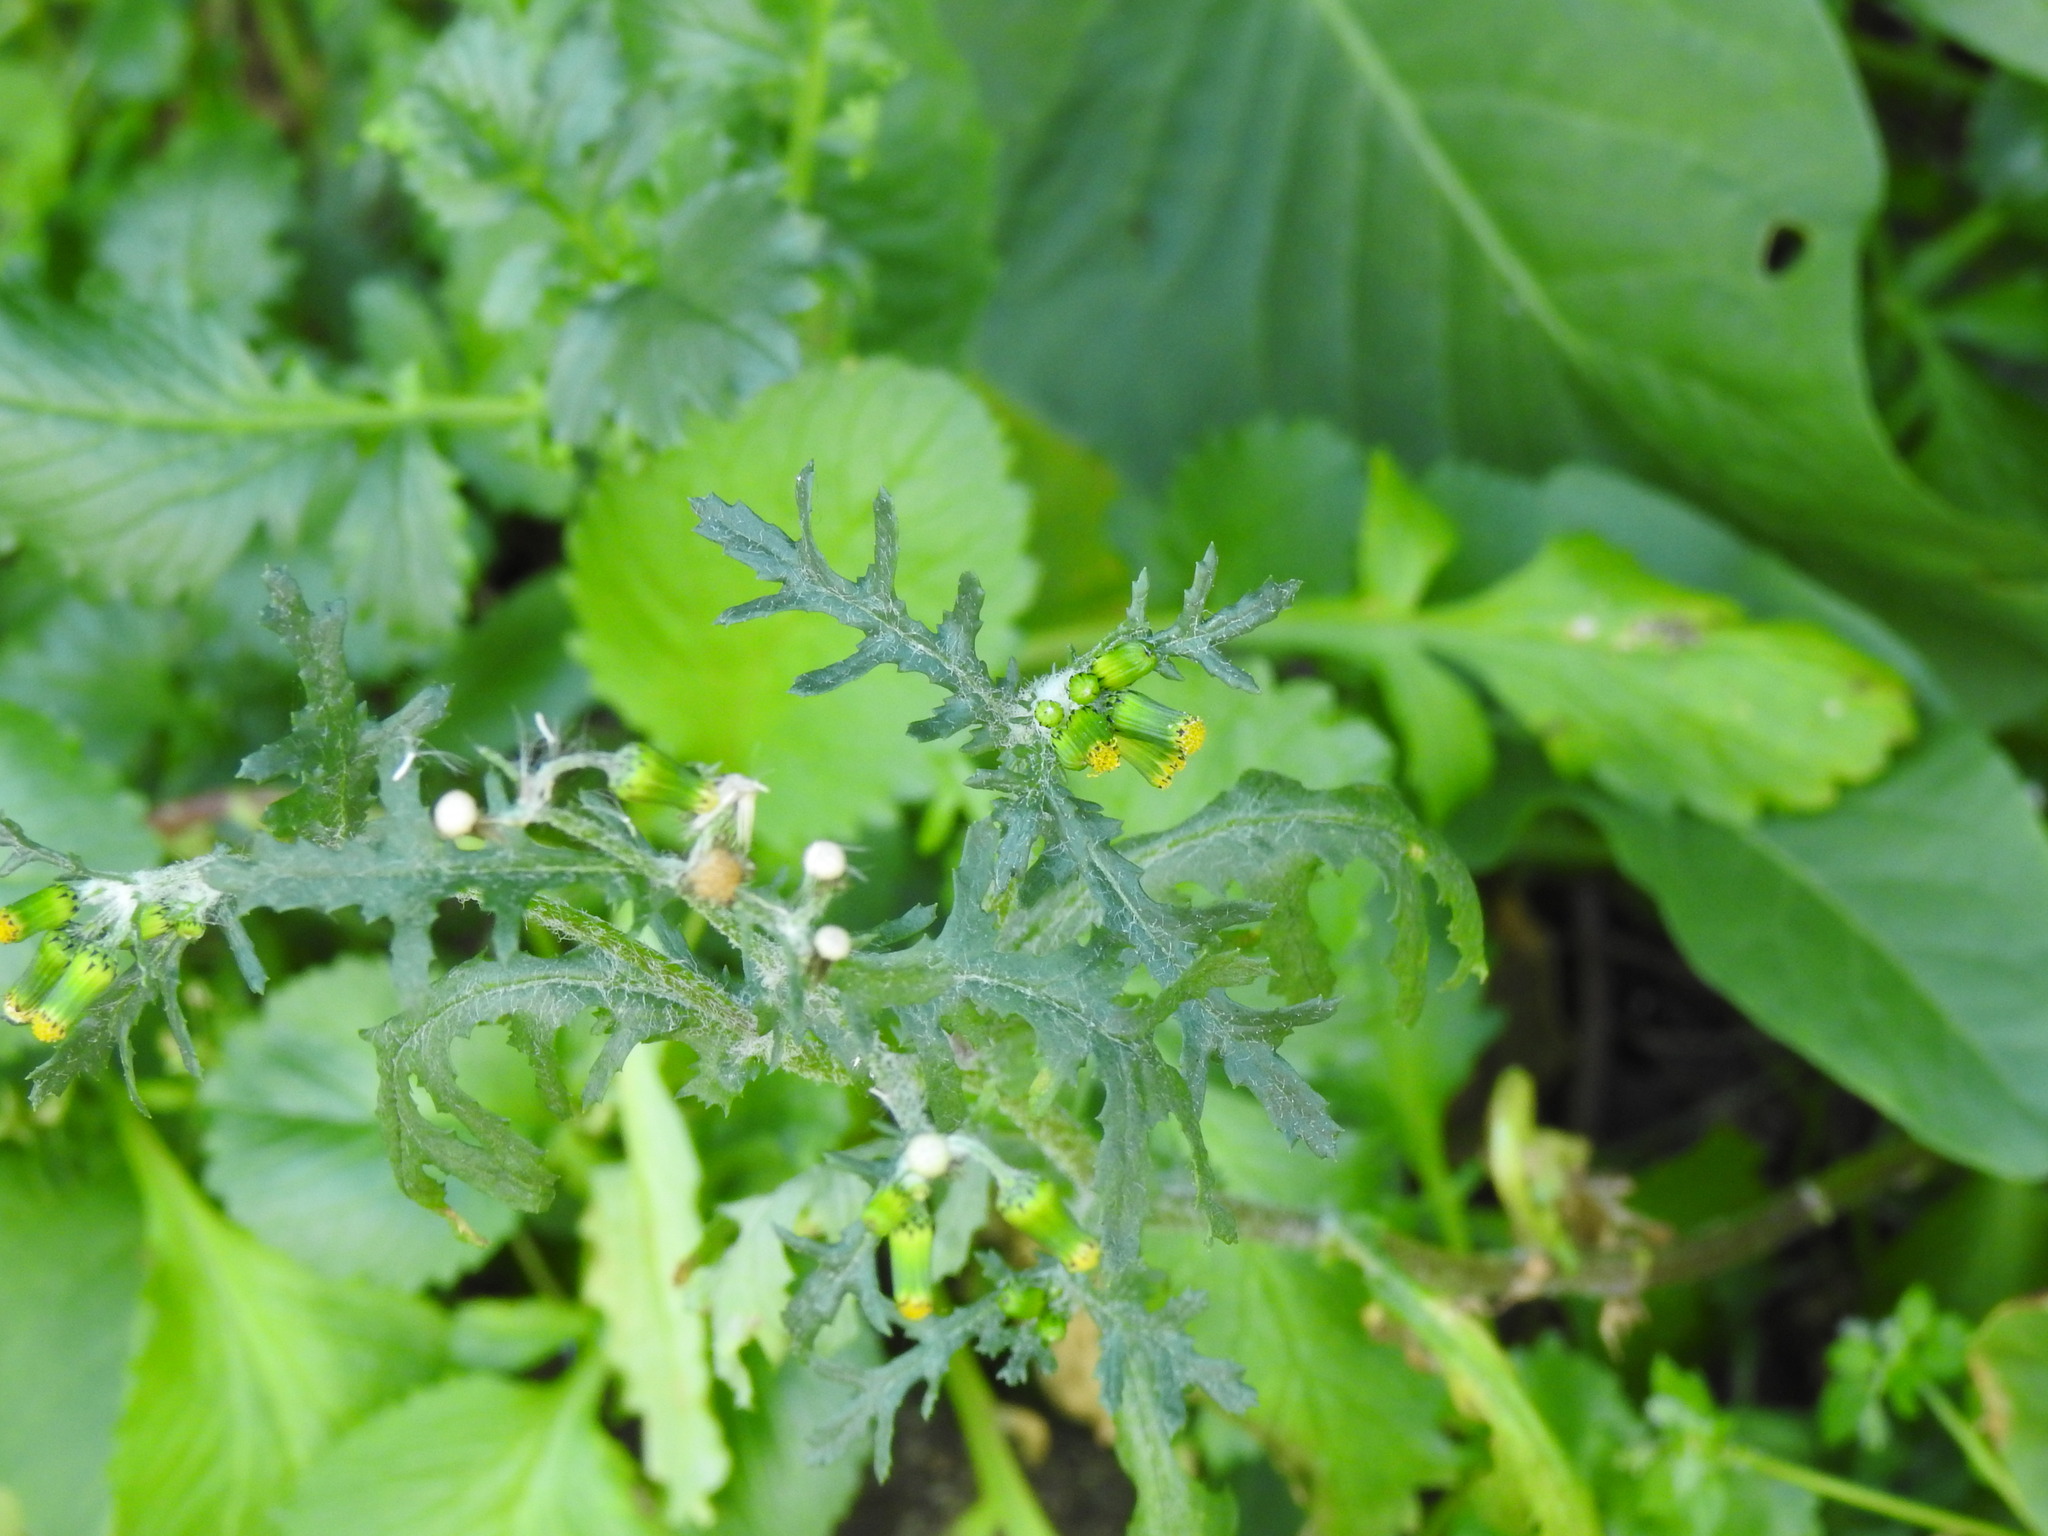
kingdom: Plantae
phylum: Tracheophyta
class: Magnoliopsida
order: Asterales
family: Asteraceae
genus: Senecio
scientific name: Senecio vulgaris
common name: Old-man-in-the-spring
